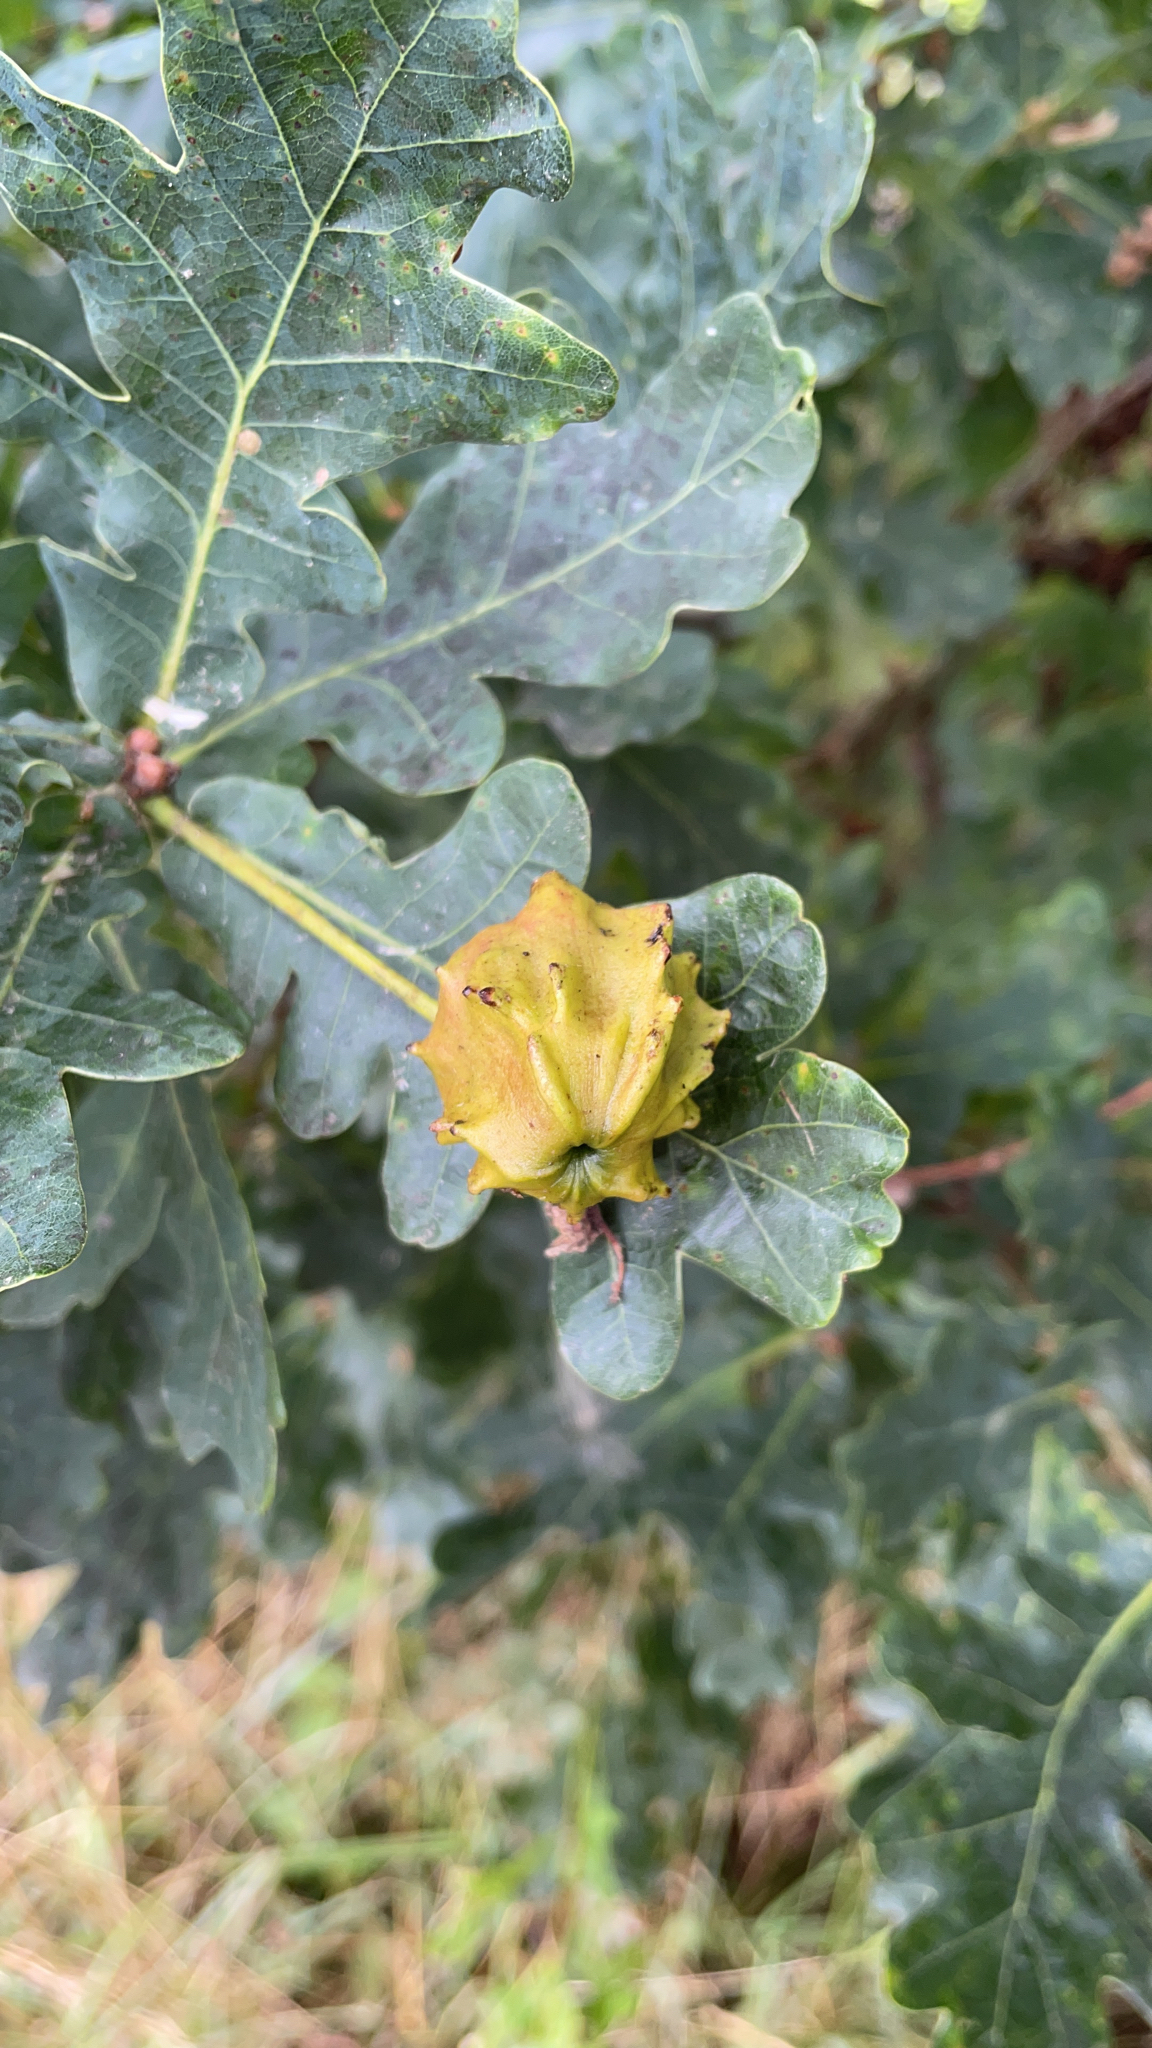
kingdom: Animalia
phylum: Arthropoda
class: Insecta
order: Hymenoptera
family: Cynipidae
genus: Andricus
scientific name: Andricus quercuscalicis
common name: Knopper gall
